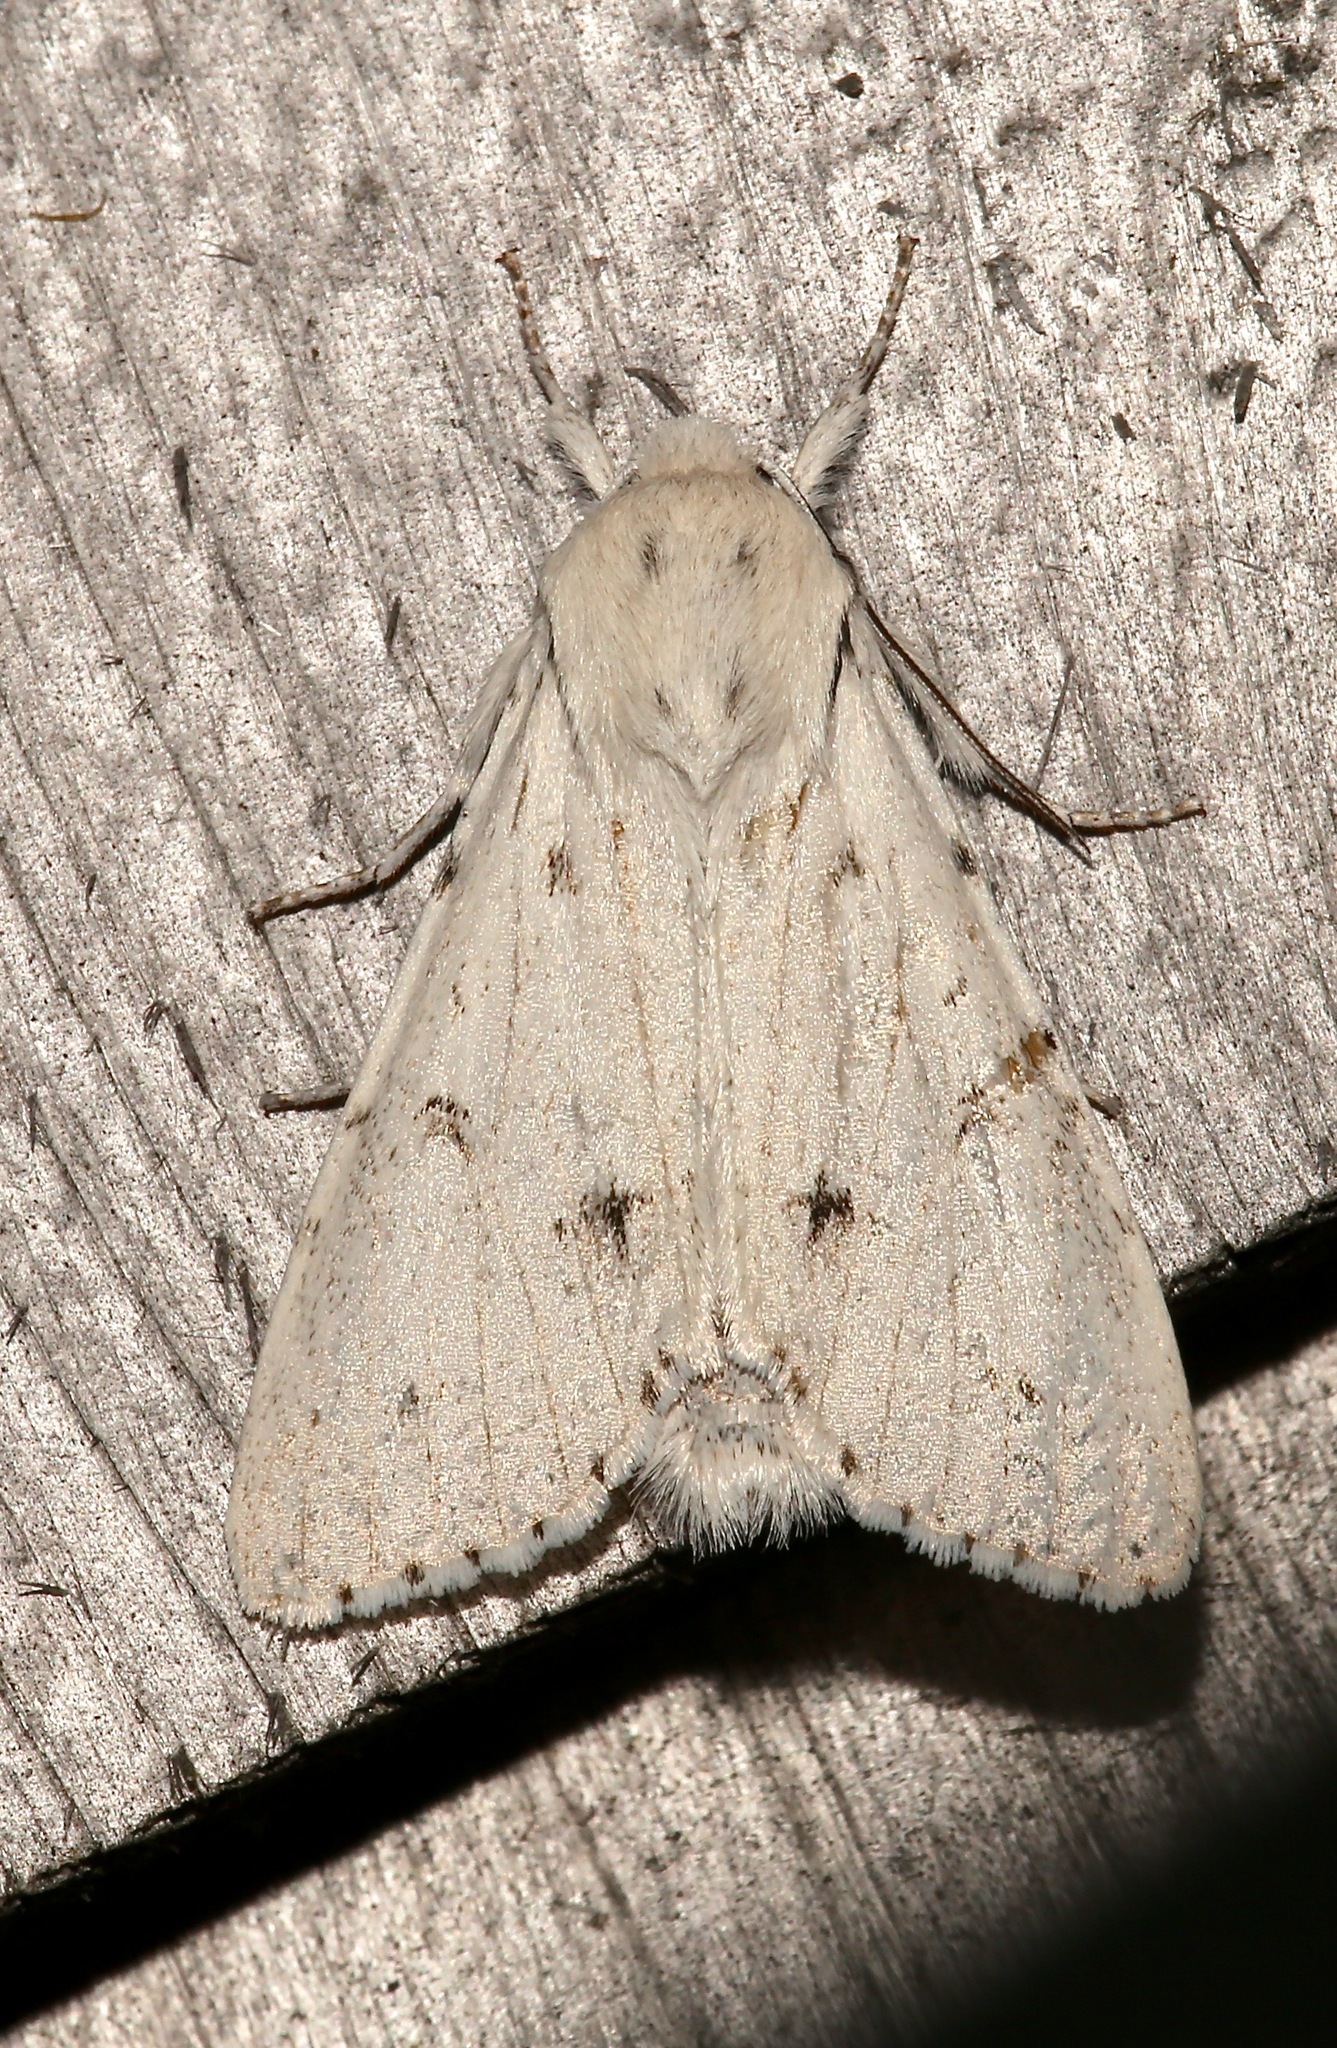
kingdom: Animalia
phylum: Arthropoda
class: Insecta
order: Lepidoptera
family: Noctuidae
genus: Acronicta
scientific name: Acronicta vulpina
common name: Miller dagger
